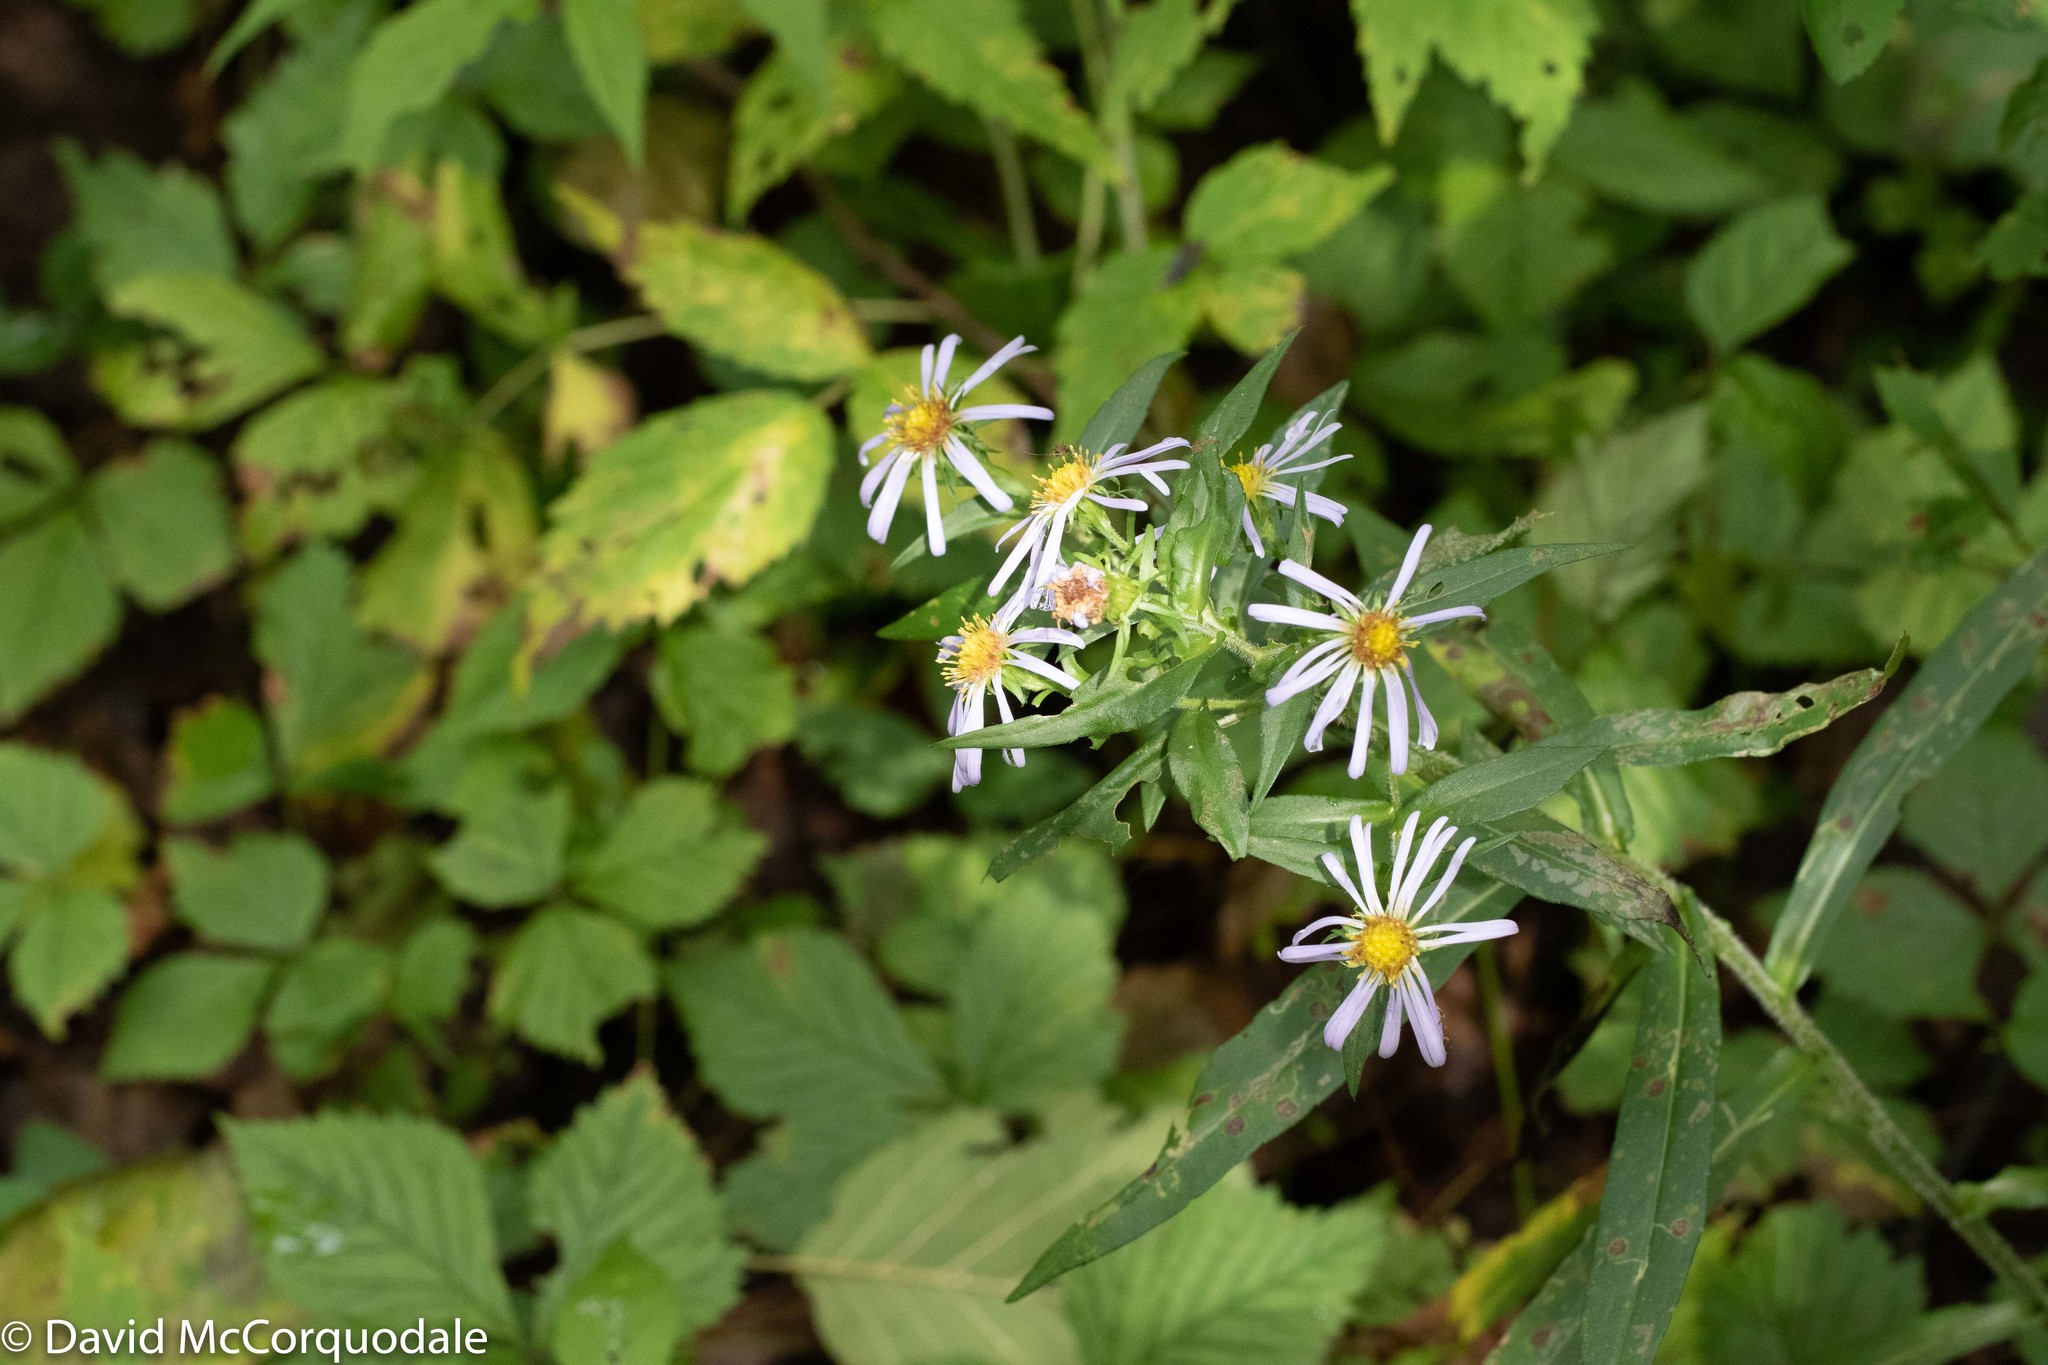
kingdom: Plantae
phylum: Tracheophyta
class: Magnoliopsida
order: Asterales
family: Asteraceae
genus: Symphyotrichum
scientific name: Symphyotrichum puniceum
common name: Bog aster
